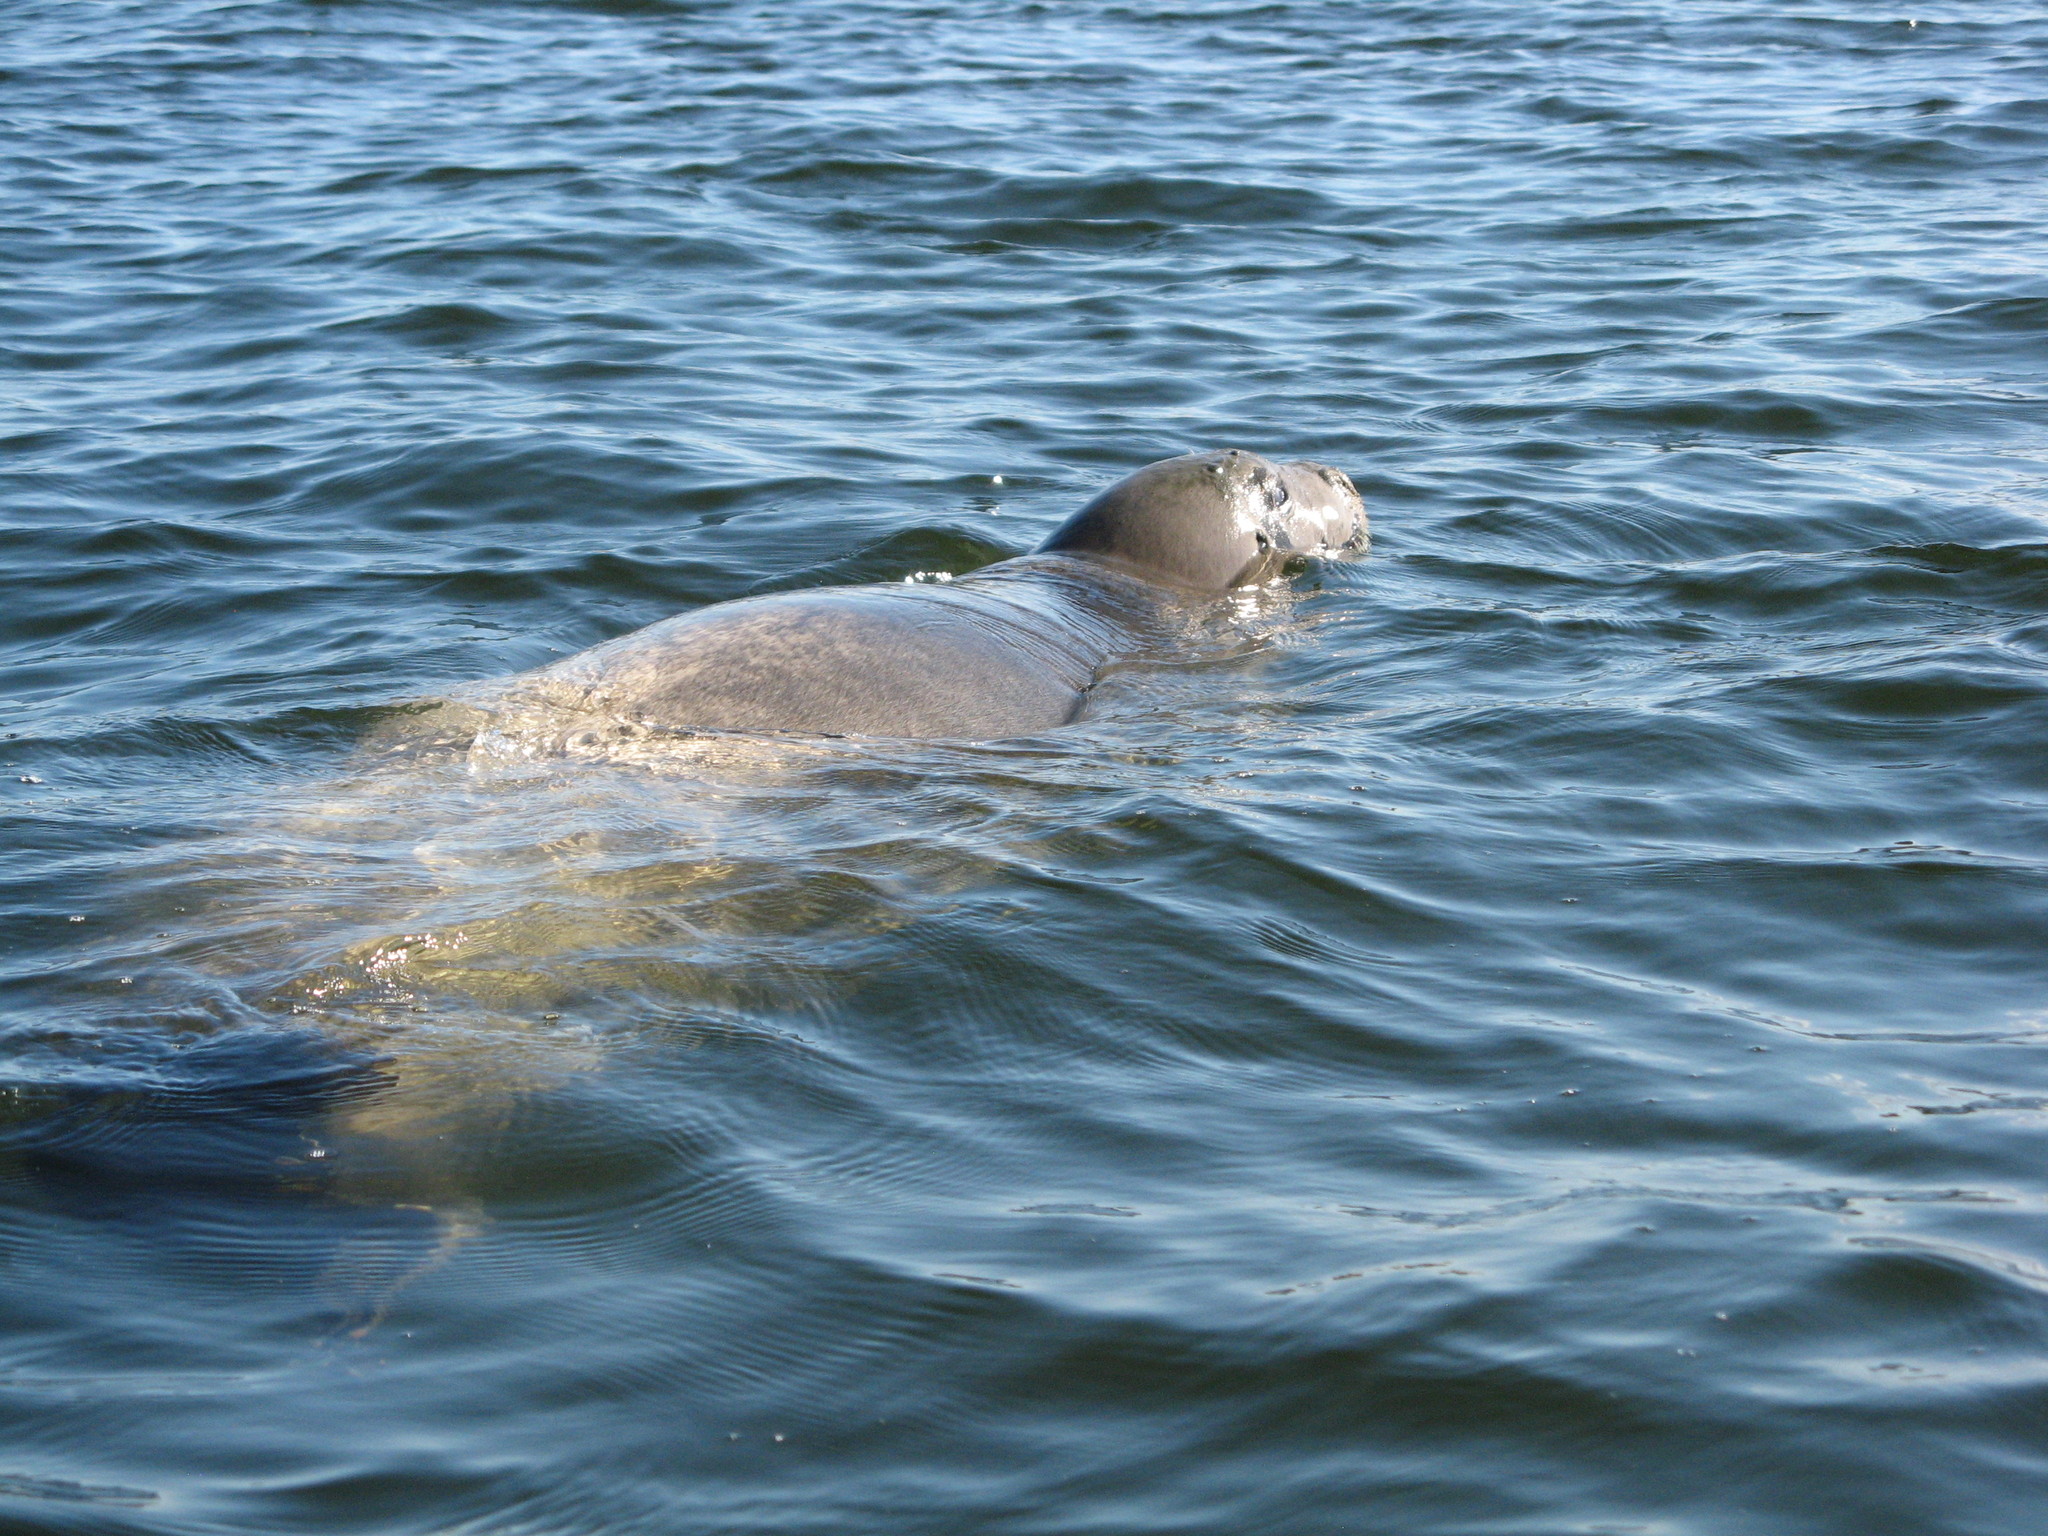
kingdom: Animalia
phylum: Chordata
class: Mammalia
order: Carnivora
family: Phocidae
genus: Erignathus
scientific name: Erignathus barbatus
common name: Bearded seal
